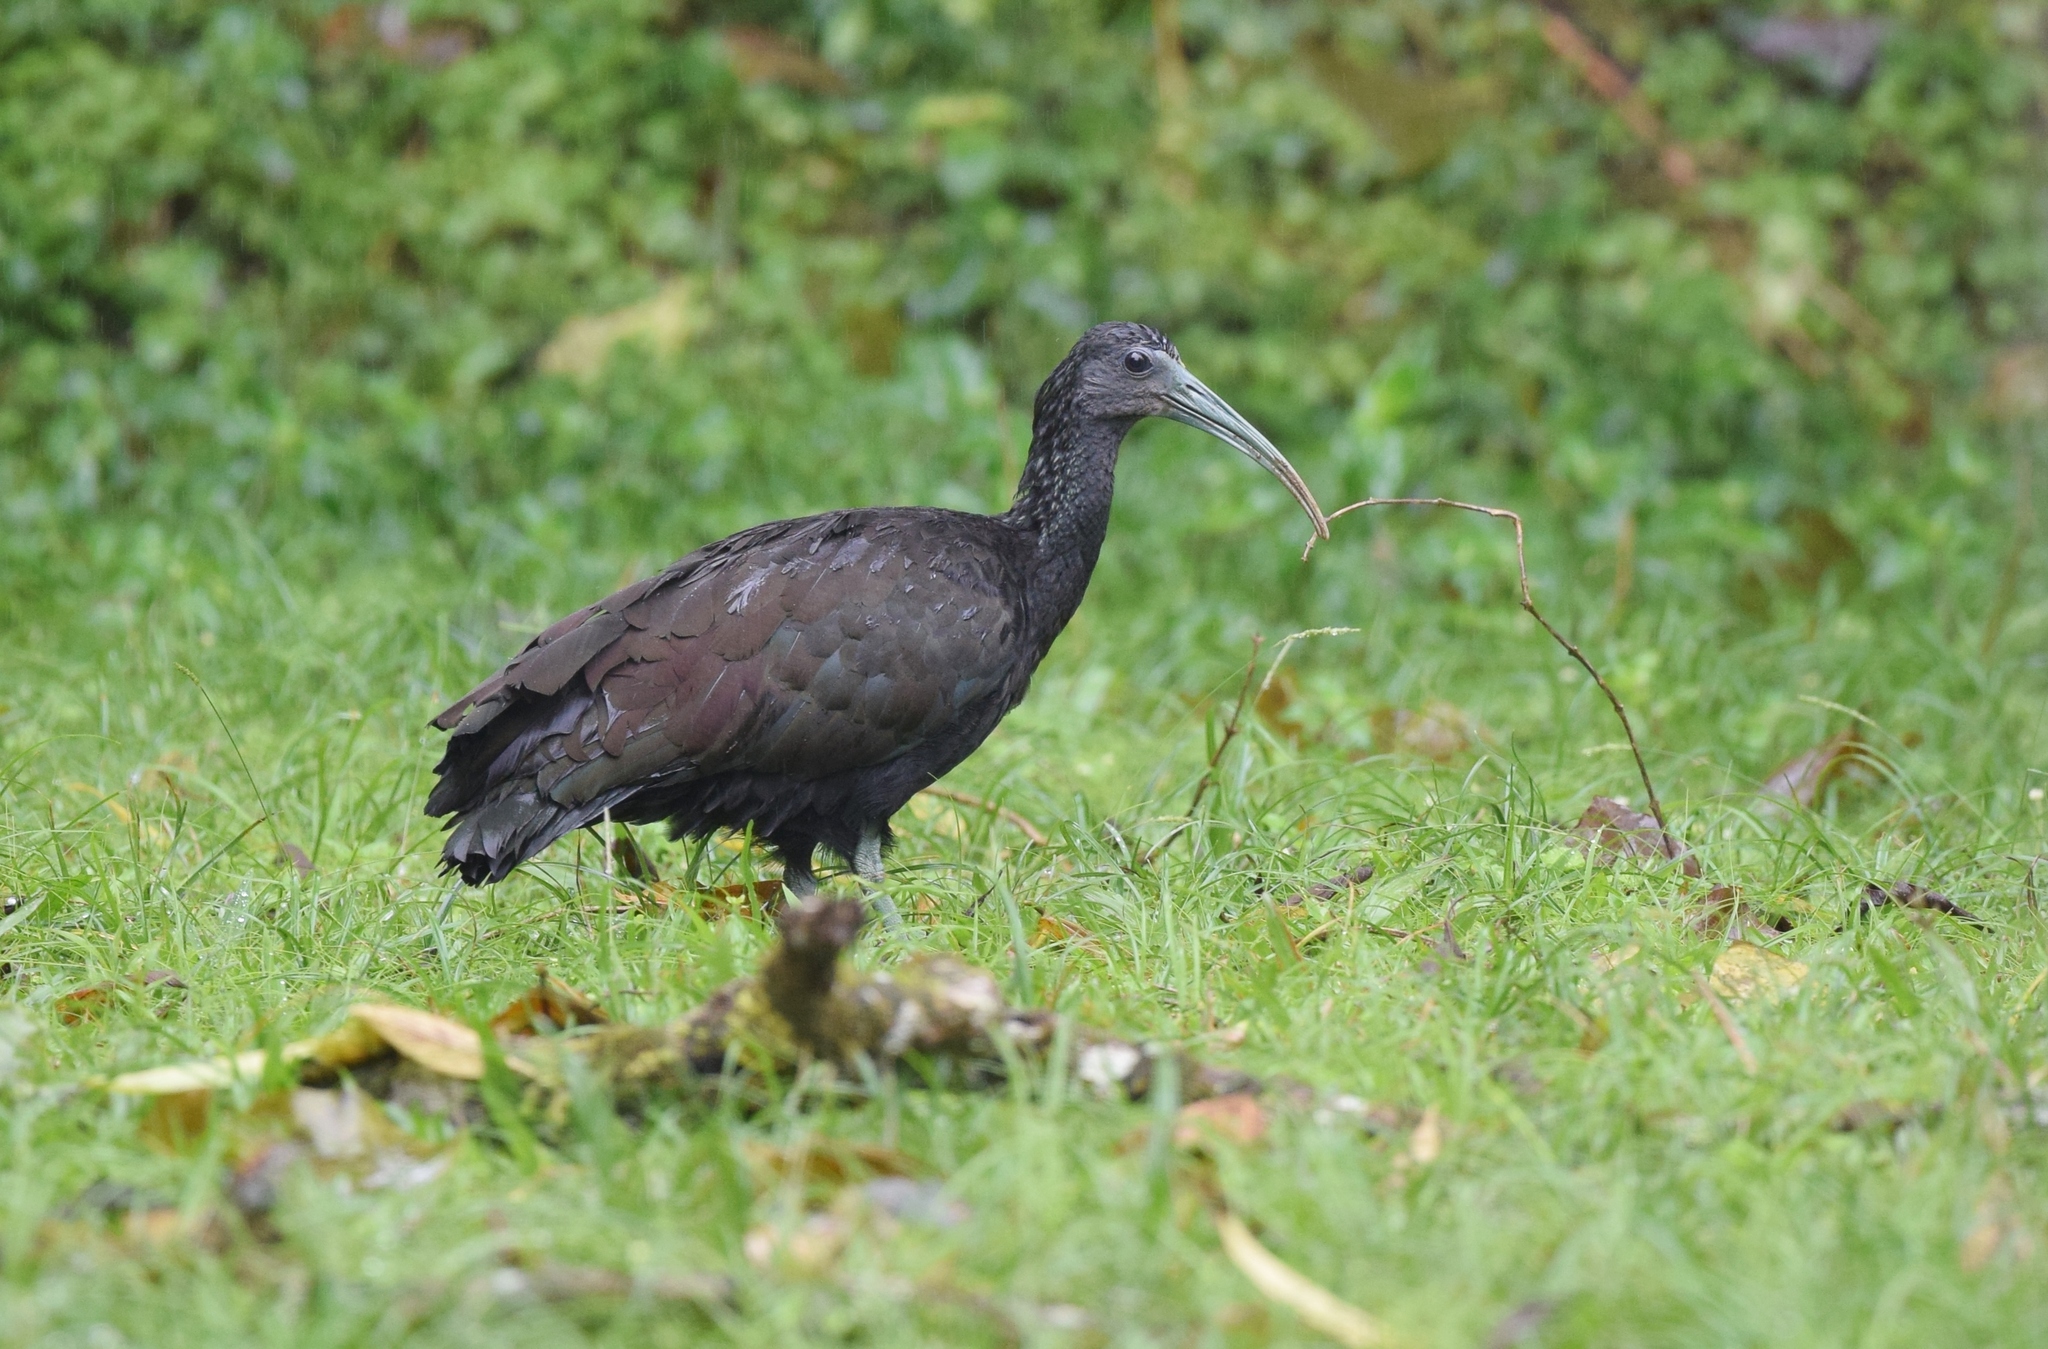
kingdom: Animalia
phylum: Chordata
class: Aves
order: Pelecaniformes
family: Threskiornithidae
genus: Mesembrinibis
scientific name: Mesembrinibis cayennensis
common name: Green ibis
